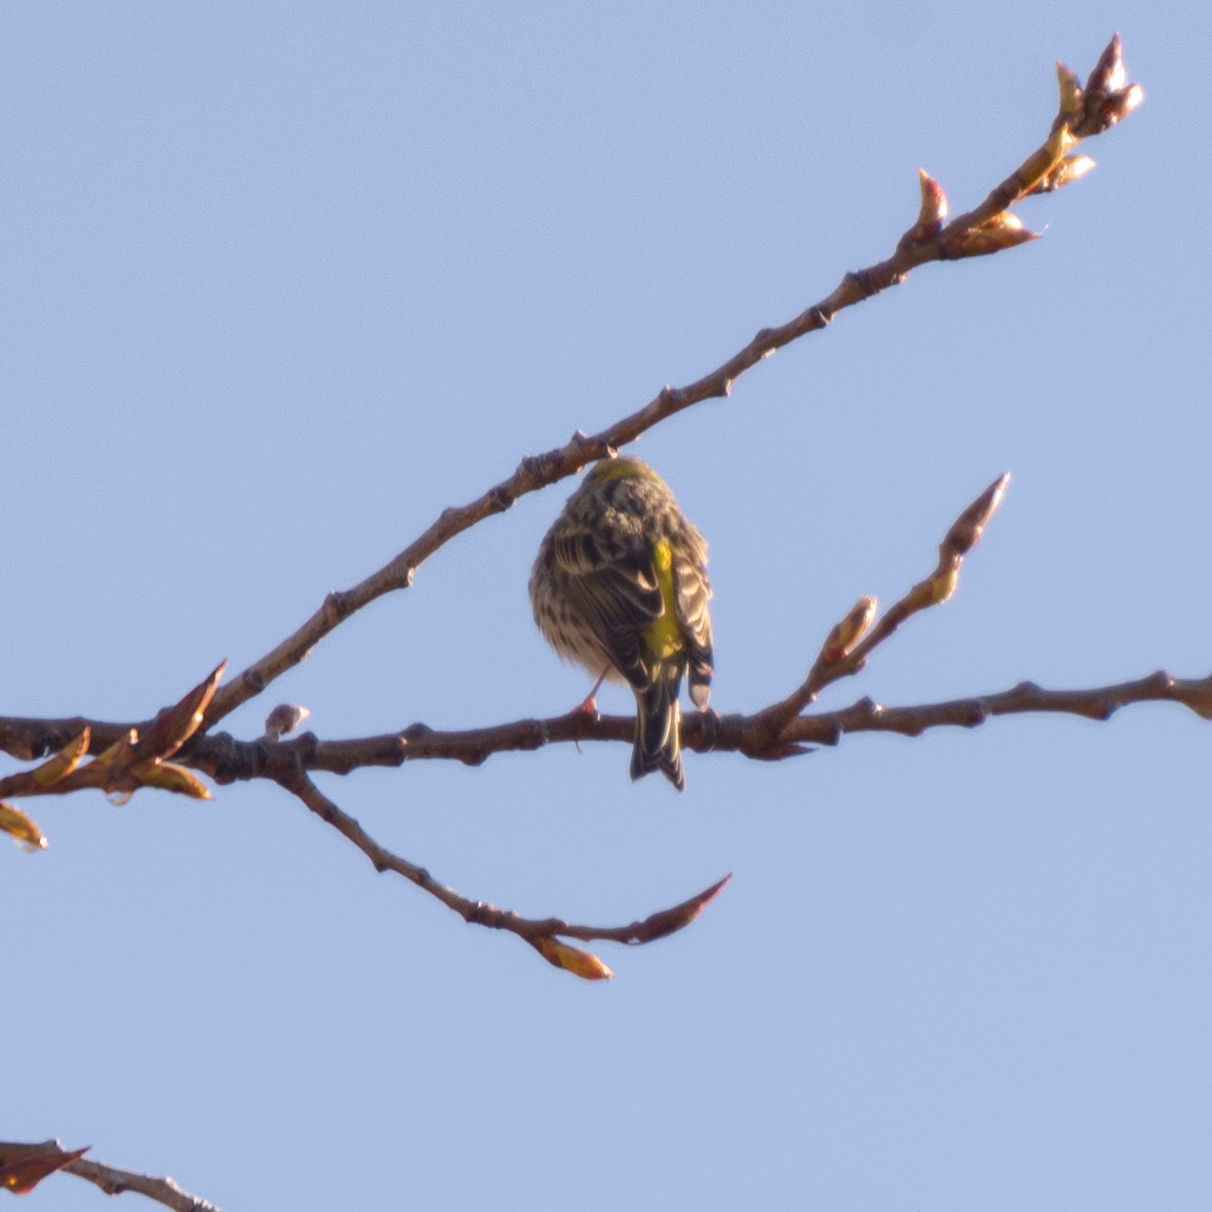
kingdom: Animalia
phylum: Chordata
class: Aves
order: Passeriformes
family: Fringillidae
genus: Serinus
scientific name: Serinus serinus
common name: European serin
